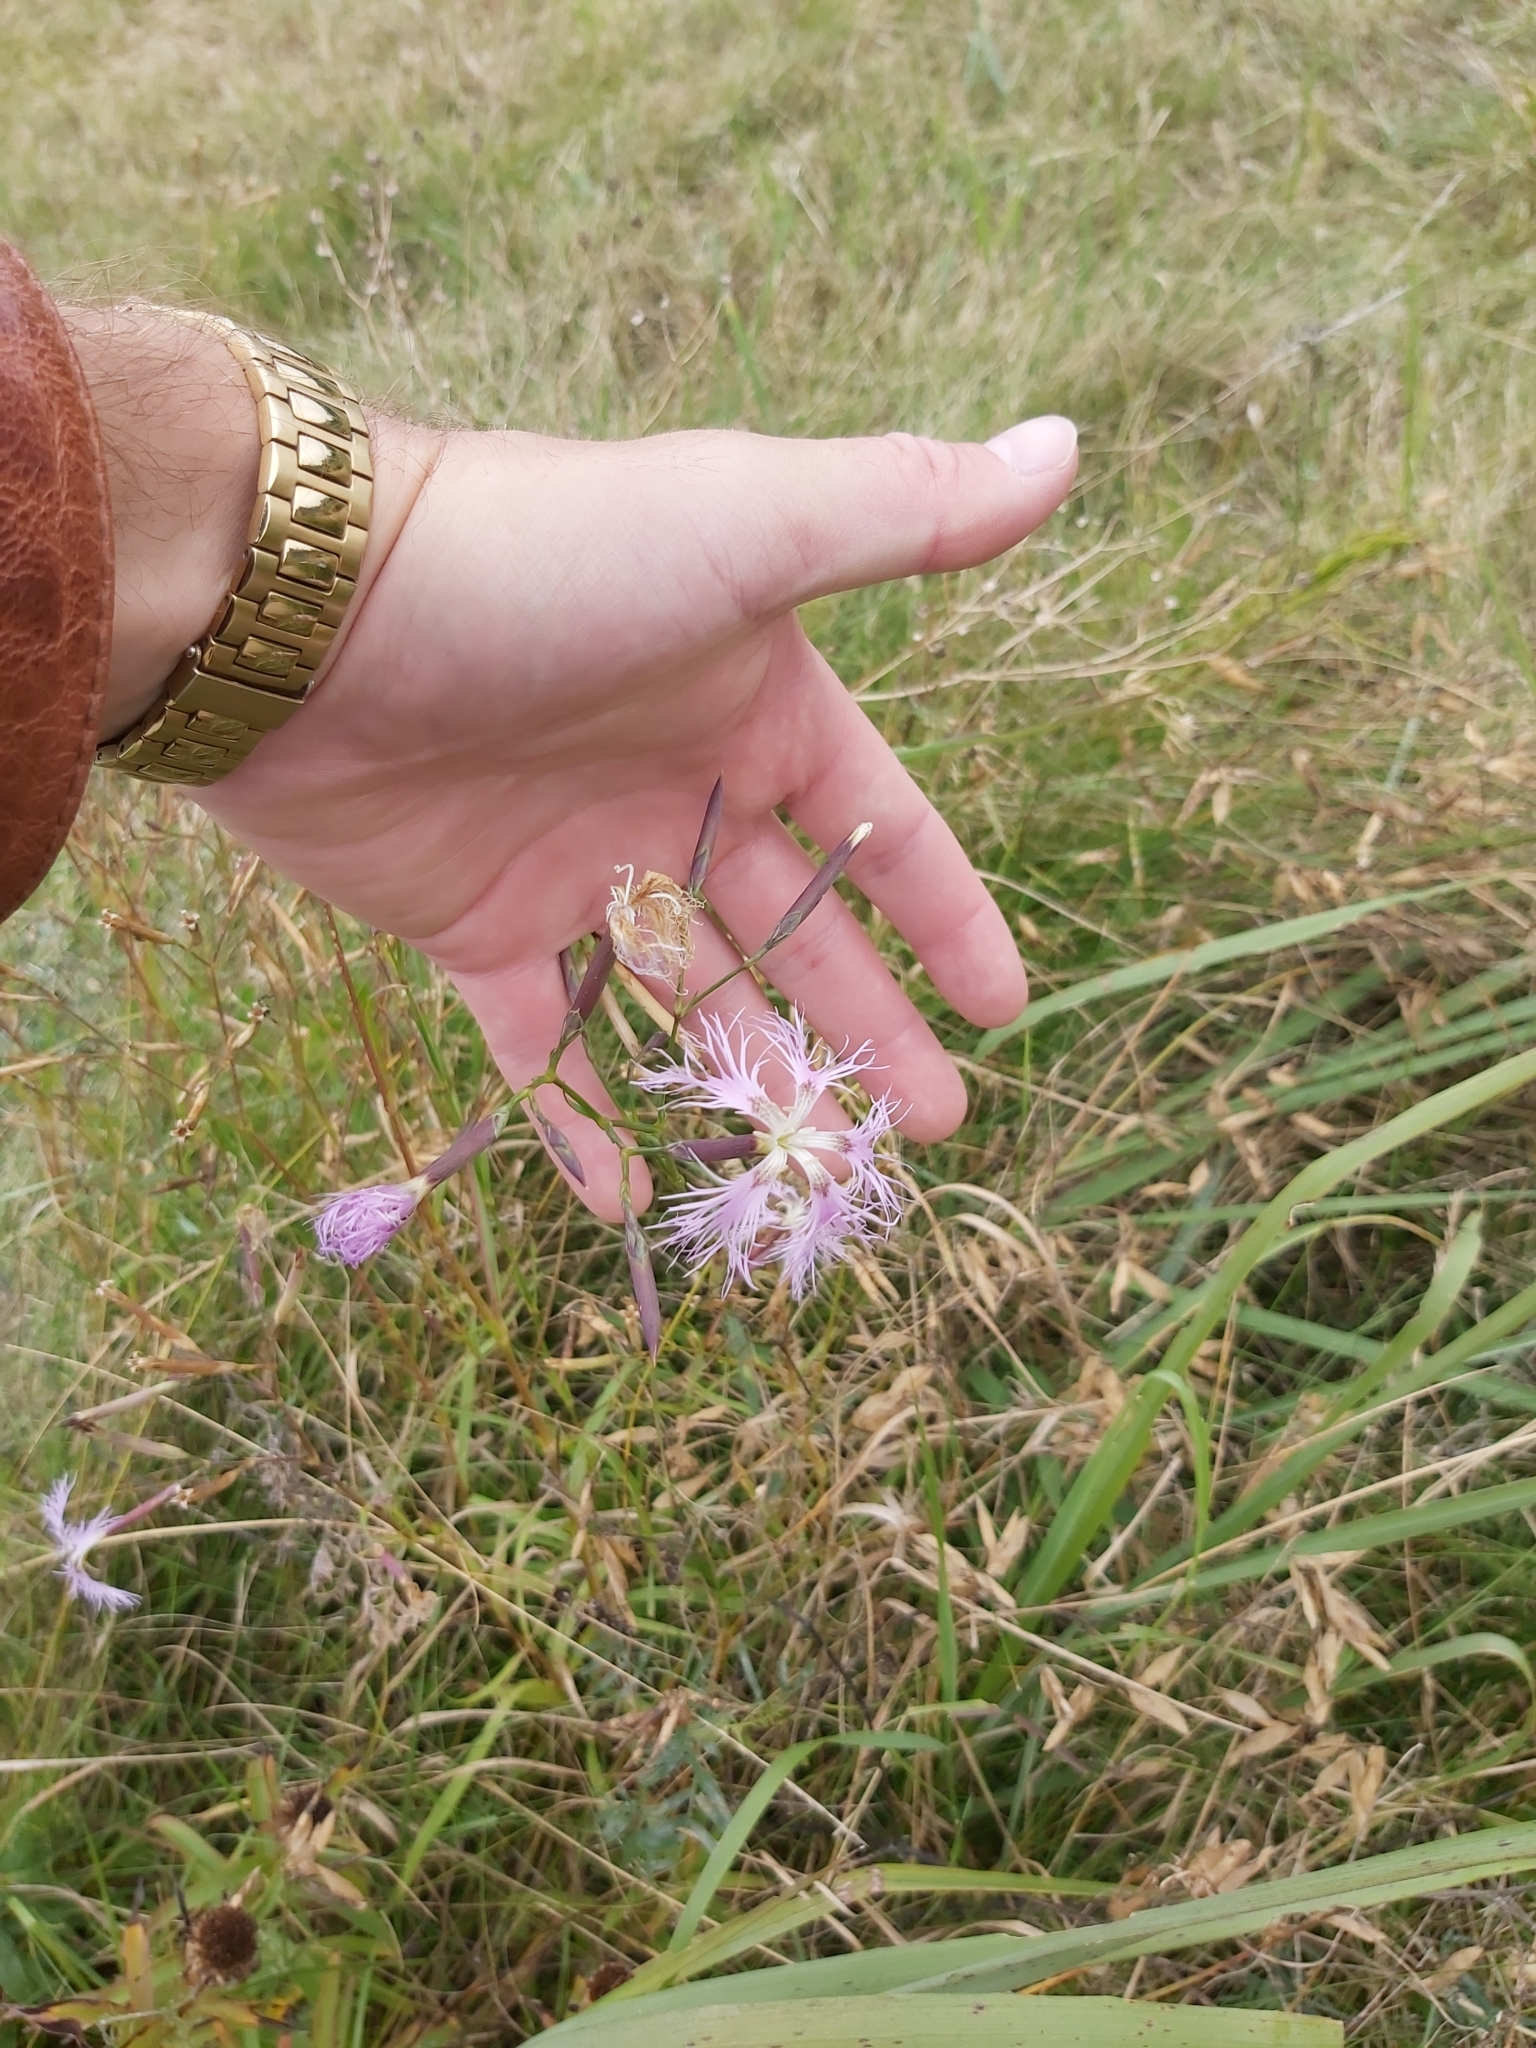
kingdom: Plantae
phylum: Tracheophyta
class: Magnoliopsida
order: Caryophyllales
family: Caryophyllaceae
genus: Dianthus
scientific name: Dianthus superbus
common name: Fringed pink
